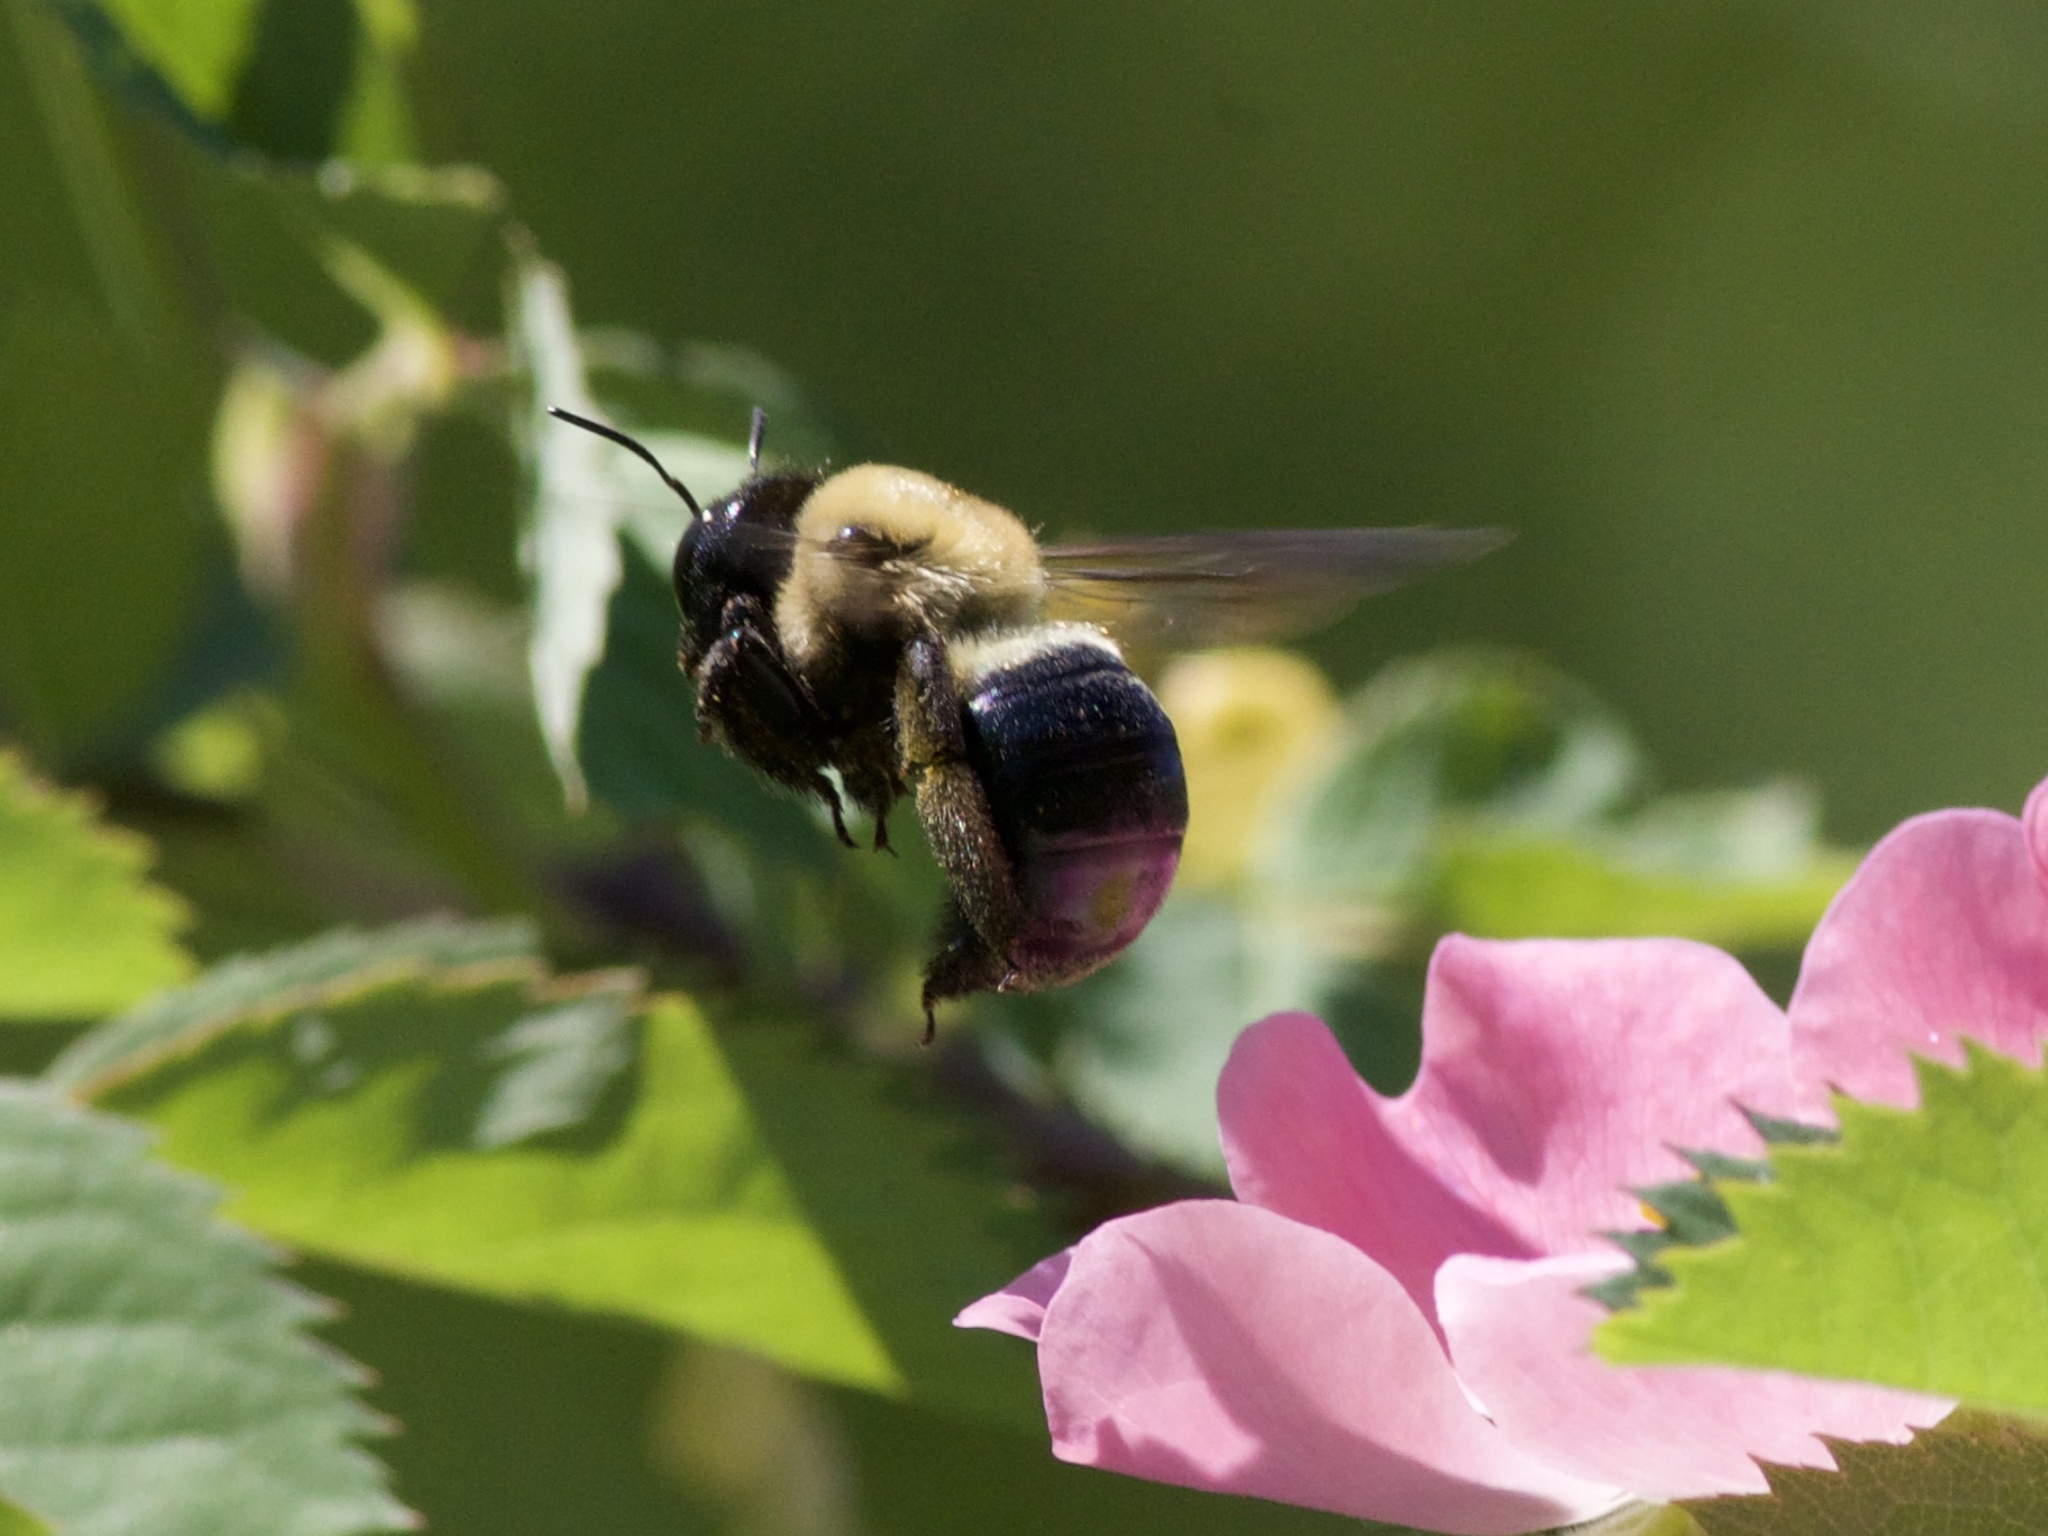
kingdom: Animalia
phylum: Arthropoda
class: Insecta
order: Hymenoptera
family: Apidae
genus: Xylocopa
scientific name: Xylocopa virginica
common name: Carpenter bee
